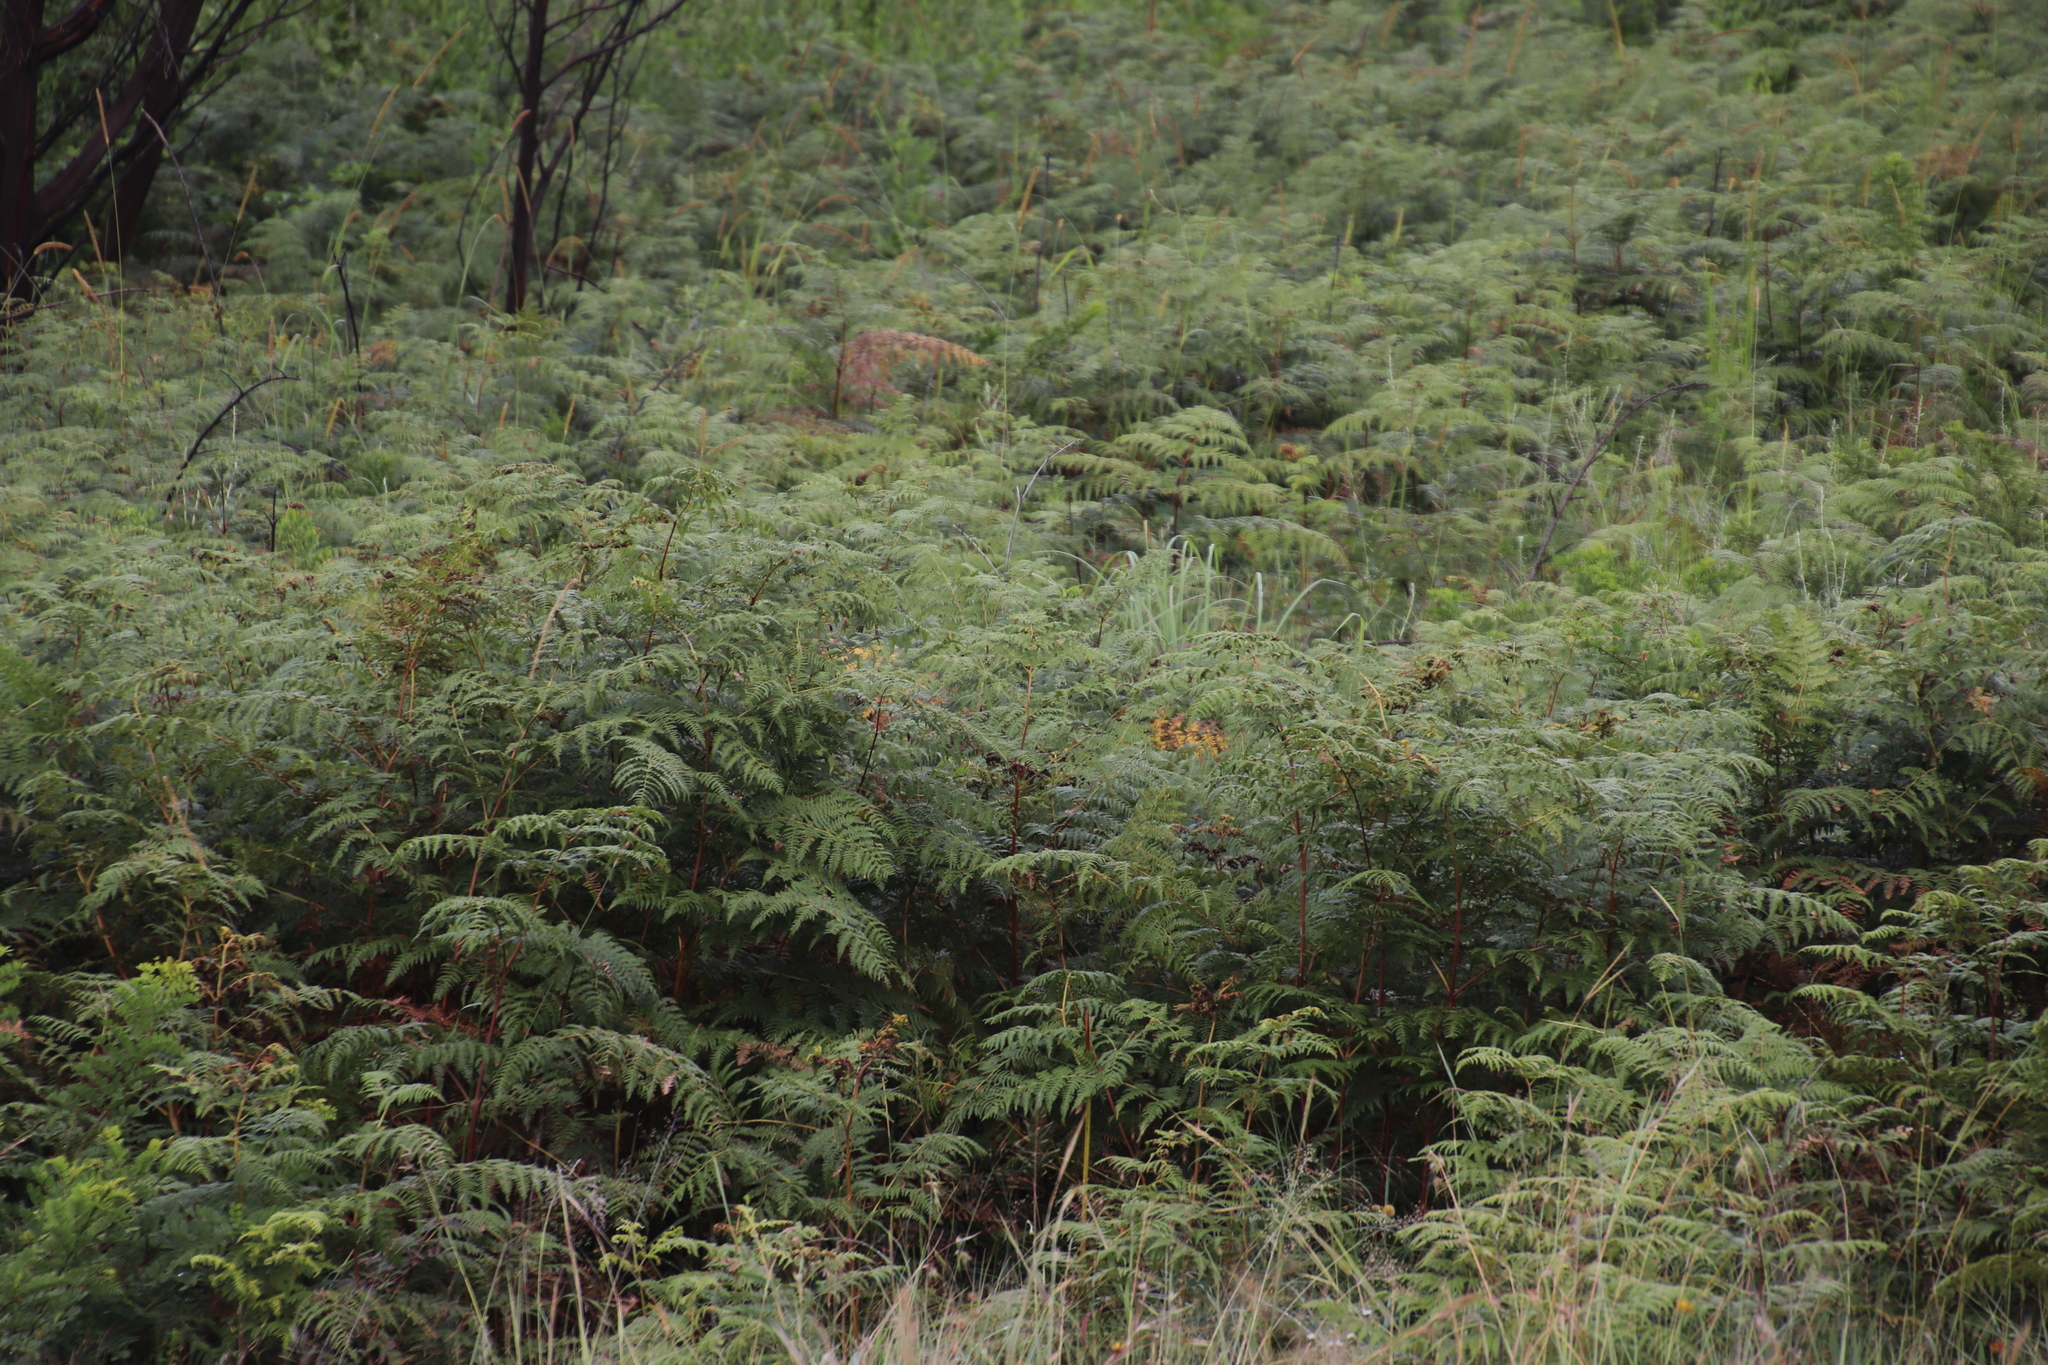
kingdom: Plantae
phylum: Tracheophyta
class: Polypodiopsida
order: Polypodiales
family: Dennstaedtiaceae
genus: Pteridium
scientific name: Pteridium aquilinum
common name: Bracken
